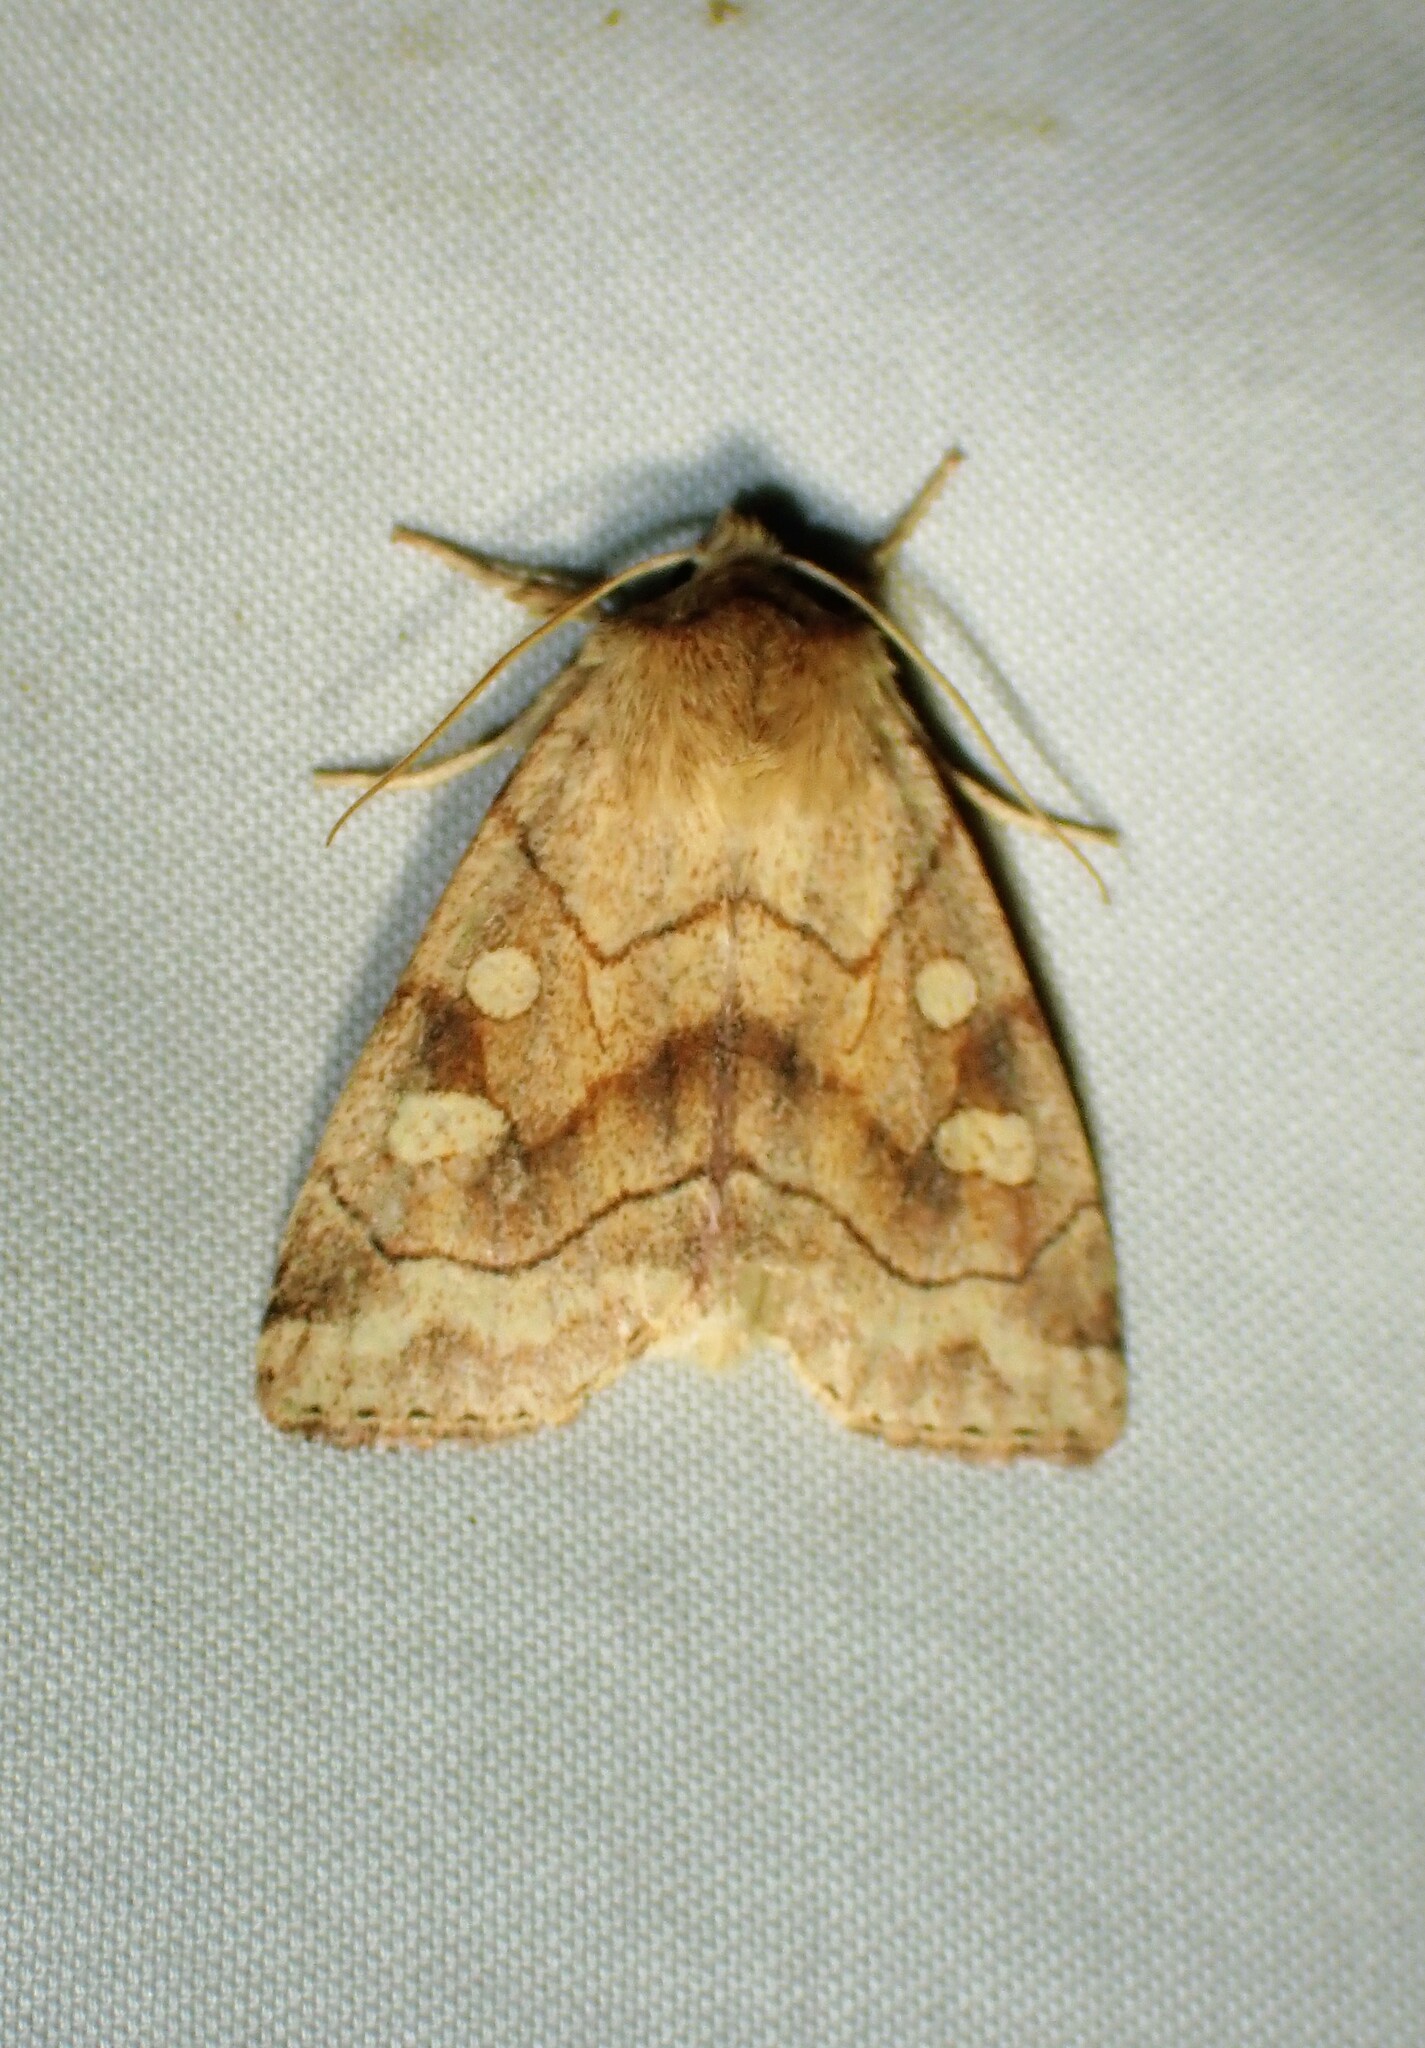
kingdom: Animalia
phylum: Arthropoda
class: Insecta
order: Lepidoptera
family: Noctuidae
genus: Enargia
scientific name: Enargia decolor
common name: Aspen twoleaf tier moth
